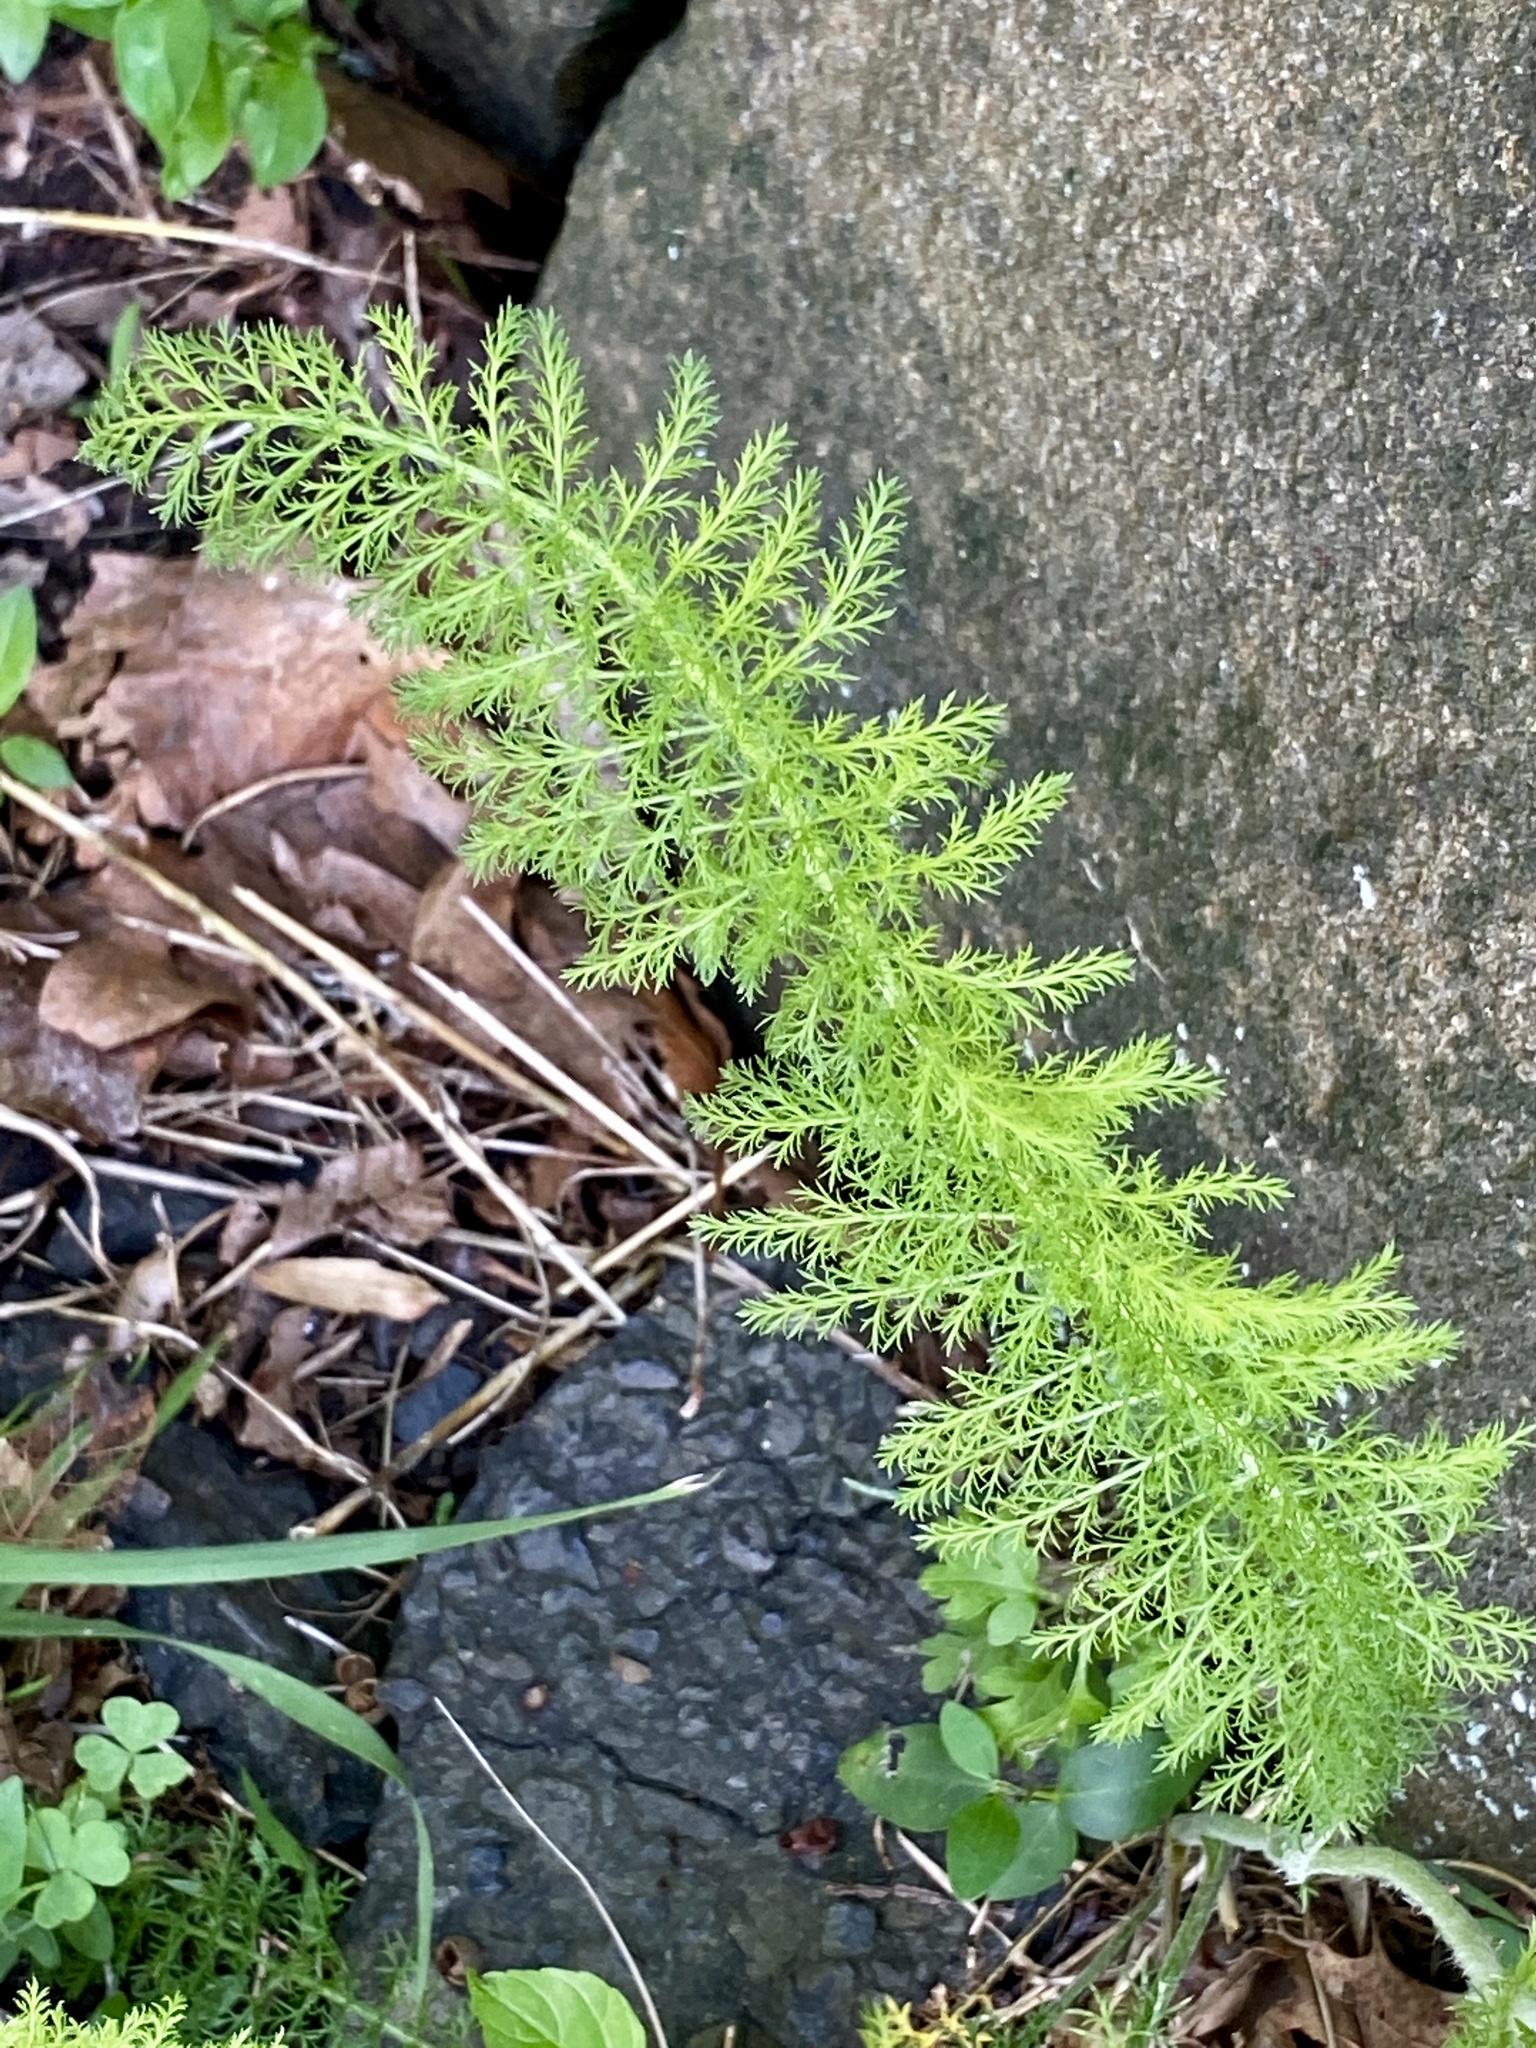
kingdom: Plantae
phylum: Tracheophyta
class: Magnoliopsida
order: Asterales
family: Asteraceae
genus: Achillea
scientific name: Achillea millefolium
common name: Yarrow
